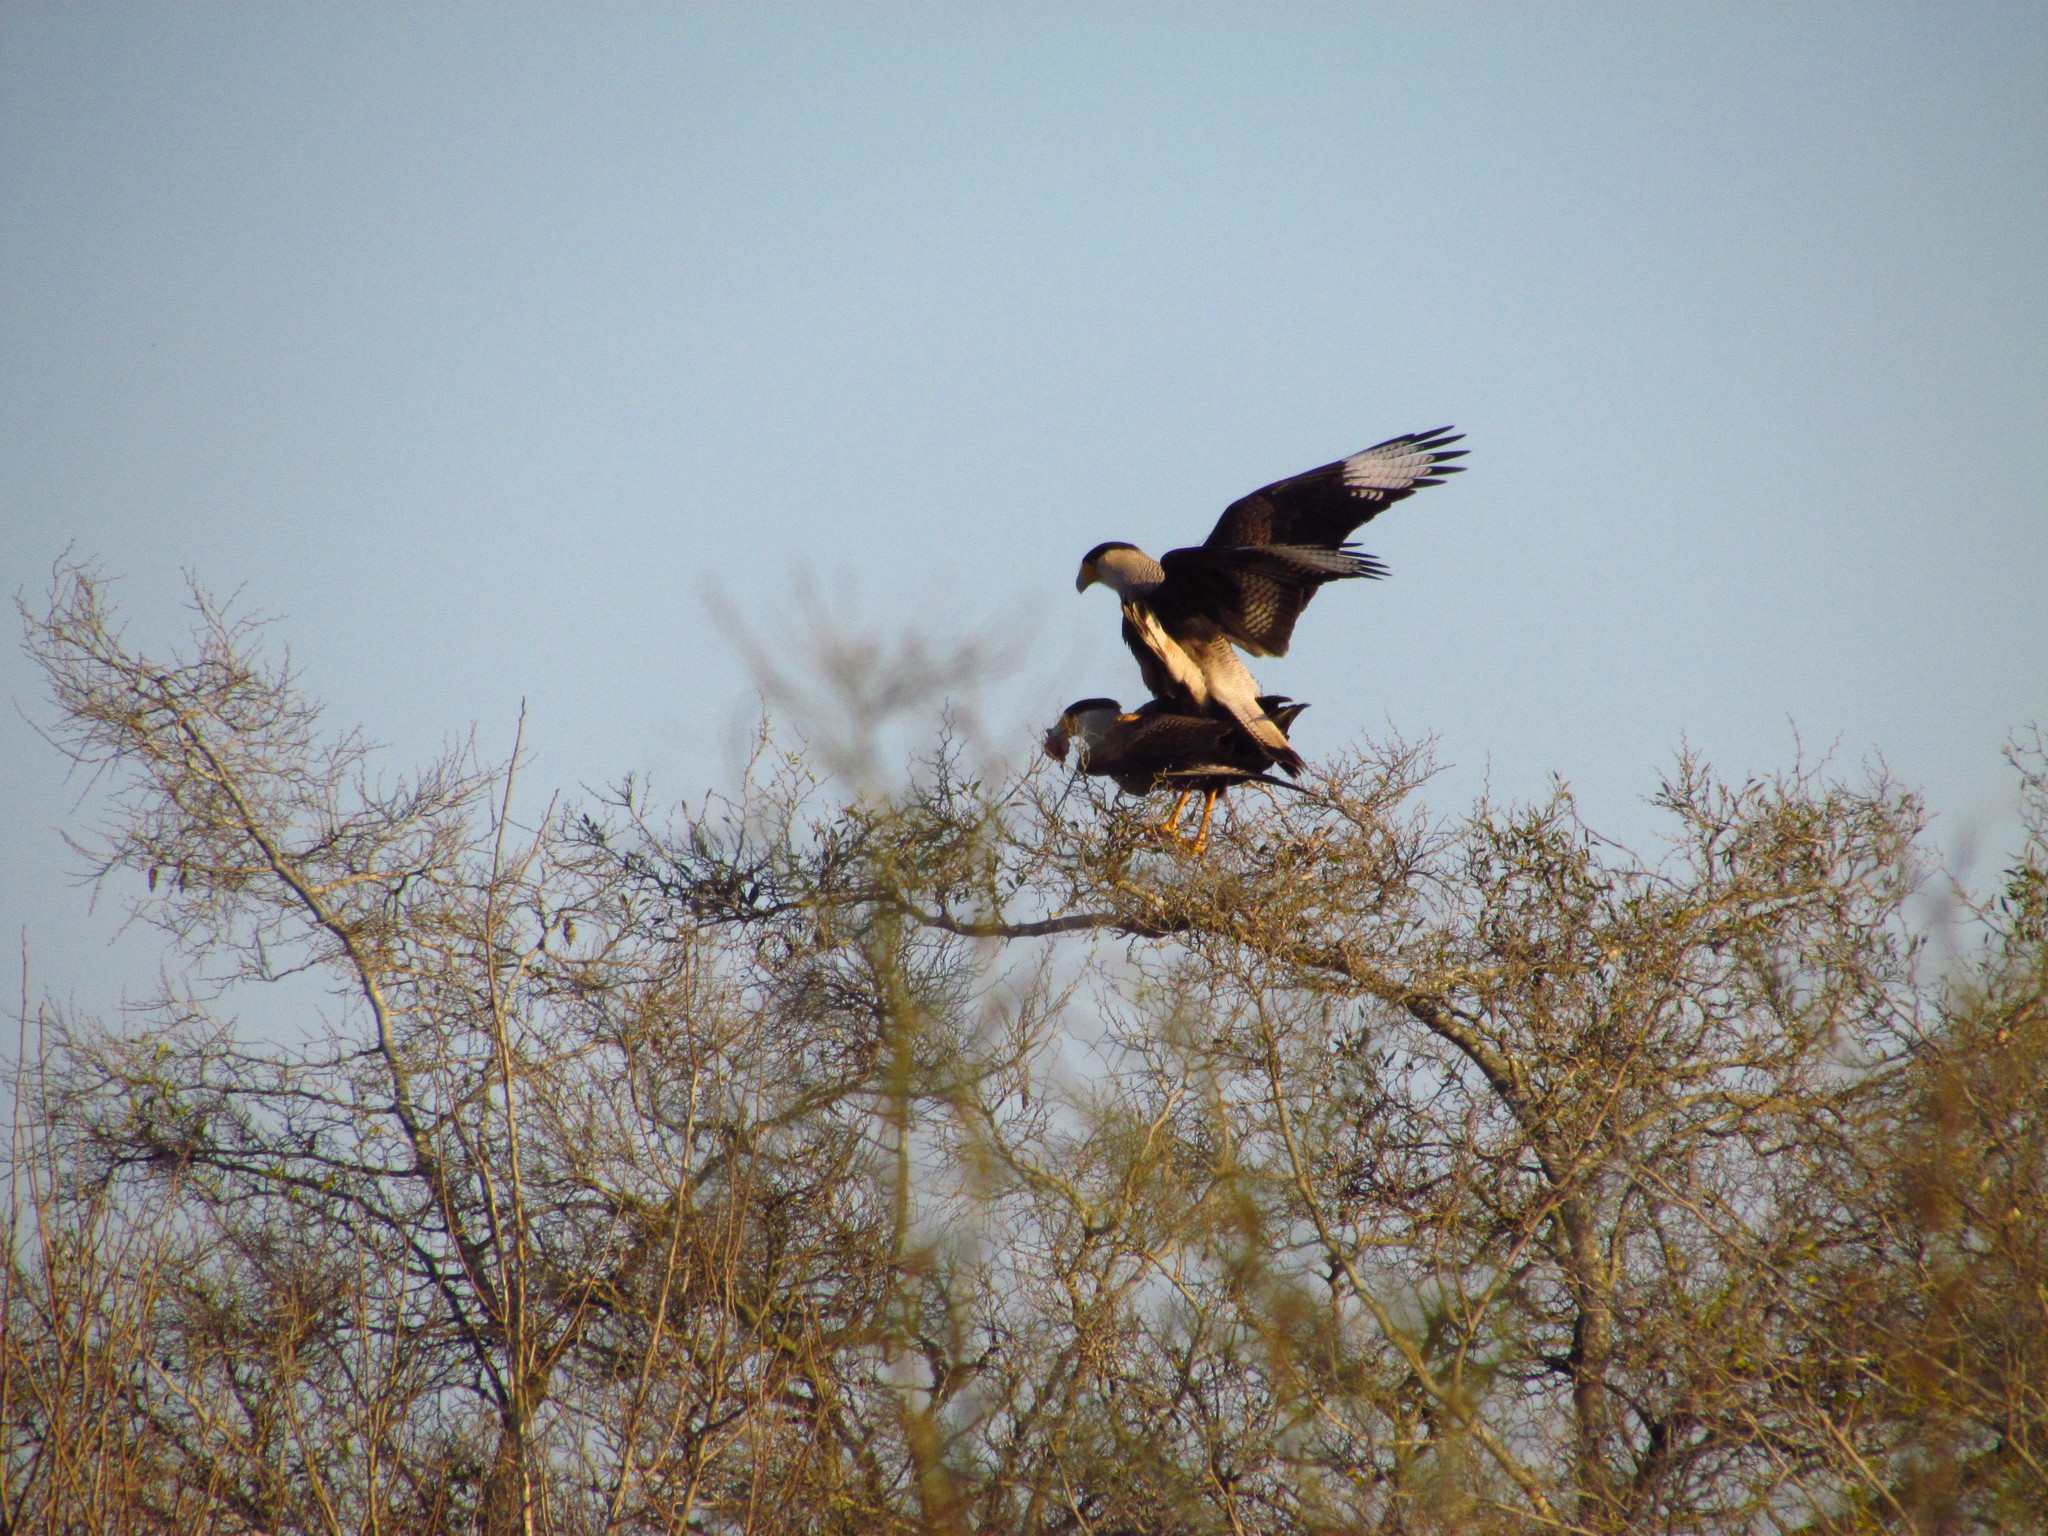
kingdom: Animalia
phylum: Chordata
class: Aves
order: Falconiformes
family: Falconidae
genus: Caracara
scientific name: Caracara plancus
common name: Southern caracara
